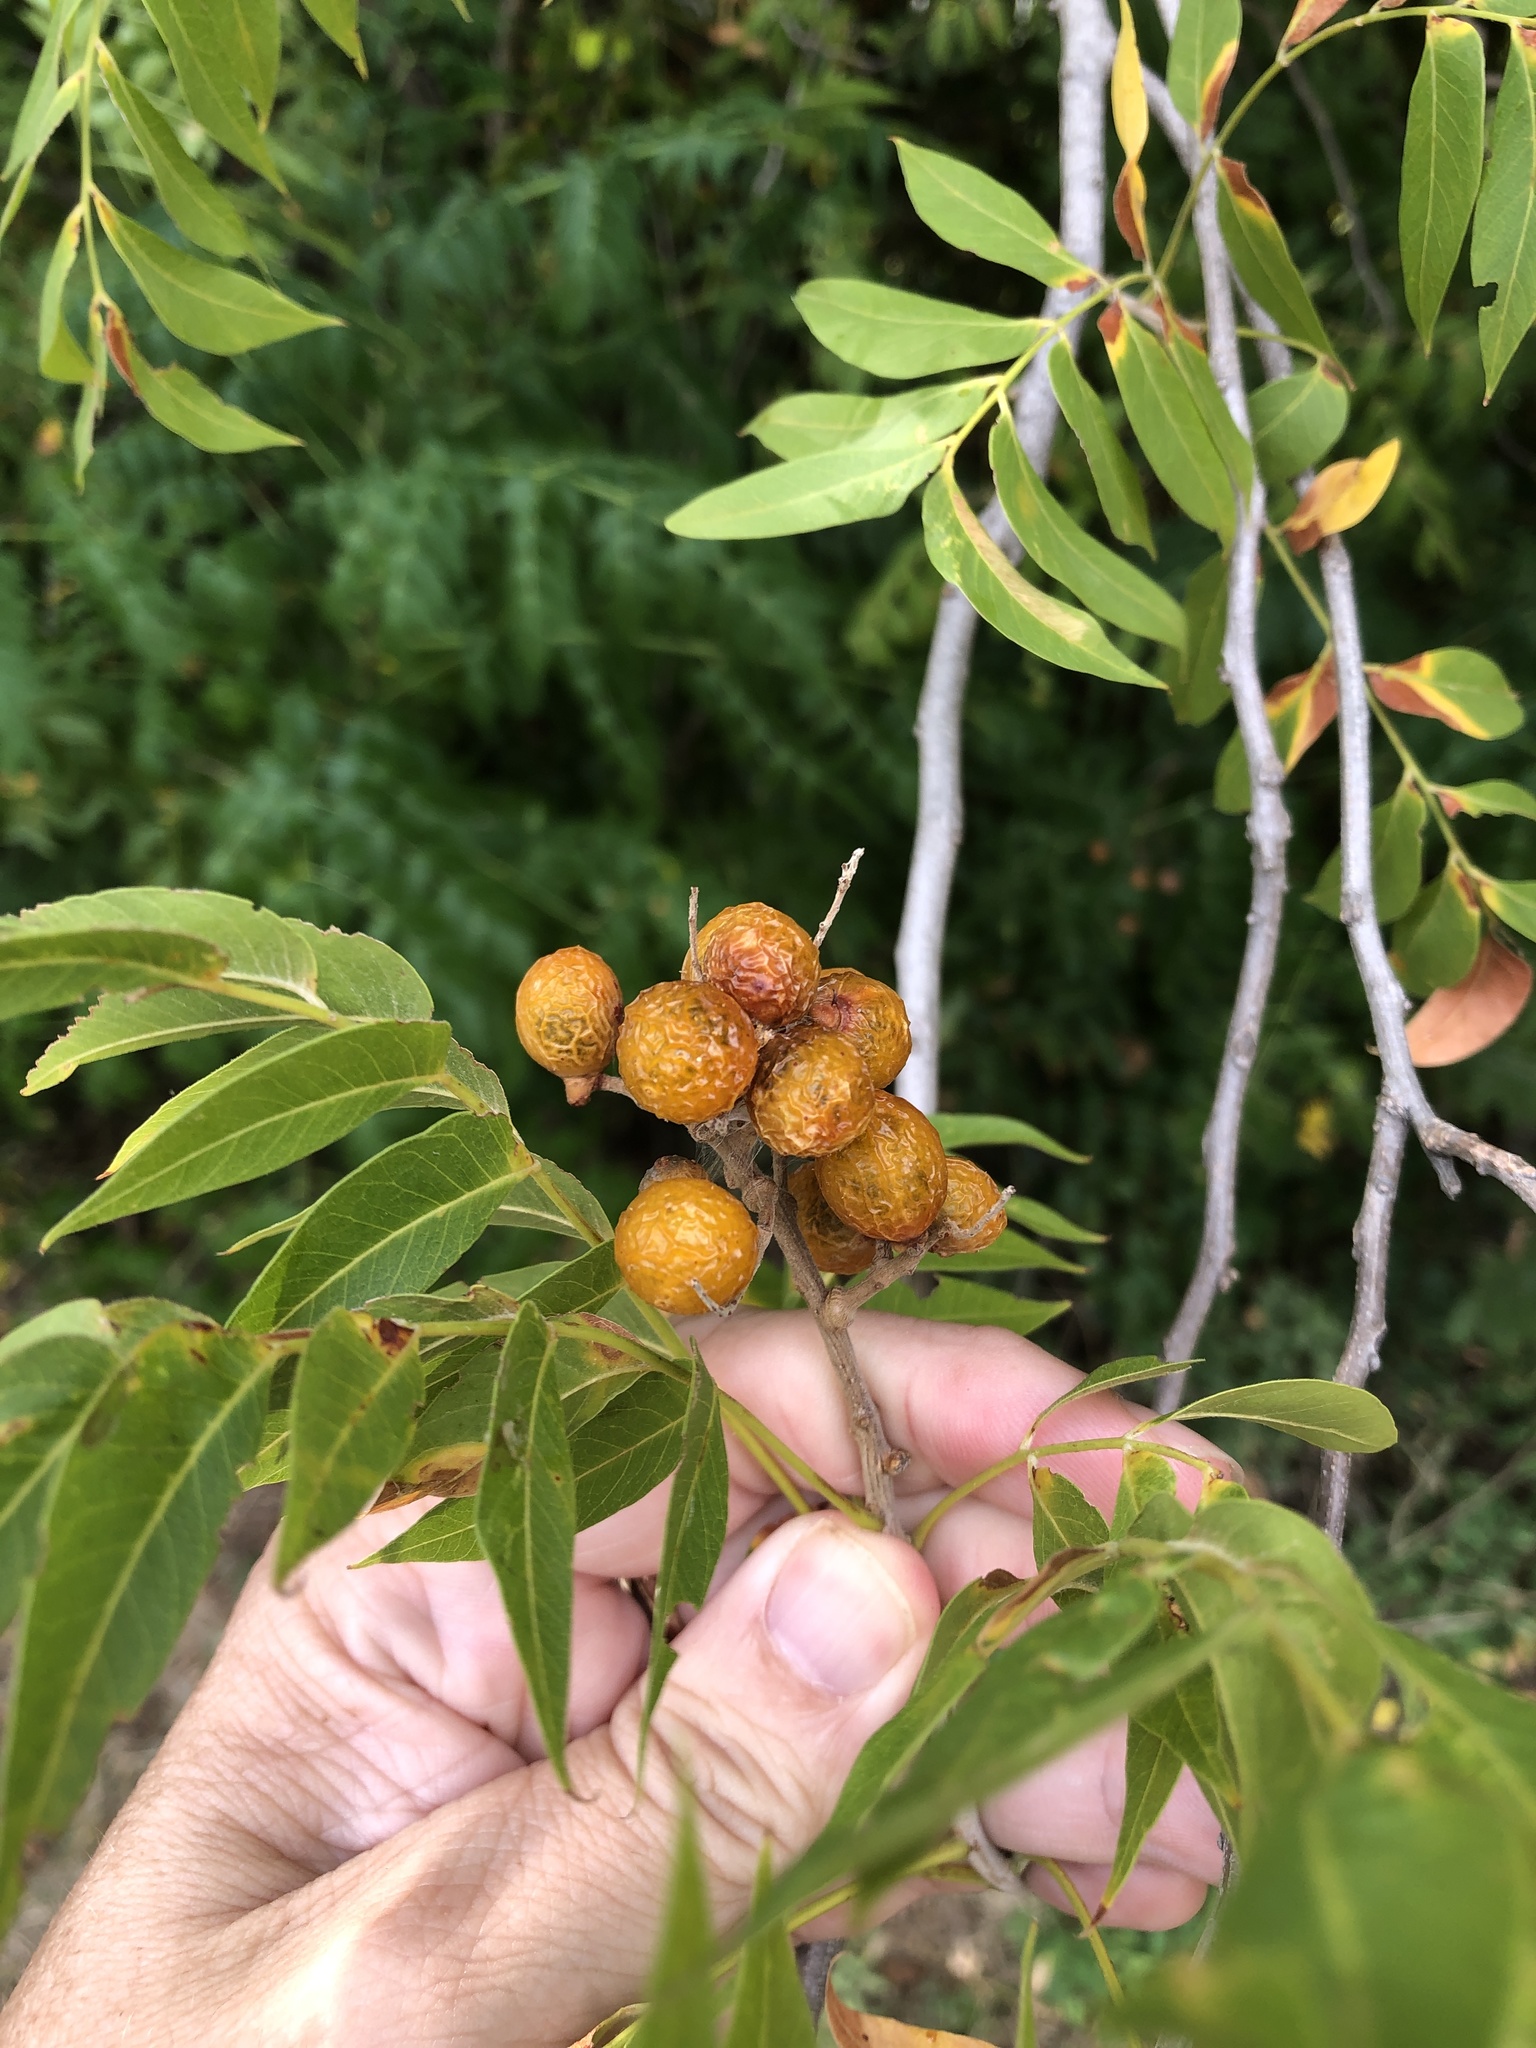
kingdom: Plantae
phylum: Tracheophyta
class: Magnoliopsida
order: Sapindales
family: Sapindaceae
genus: Sapindus
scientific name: Sapindus drummondii
